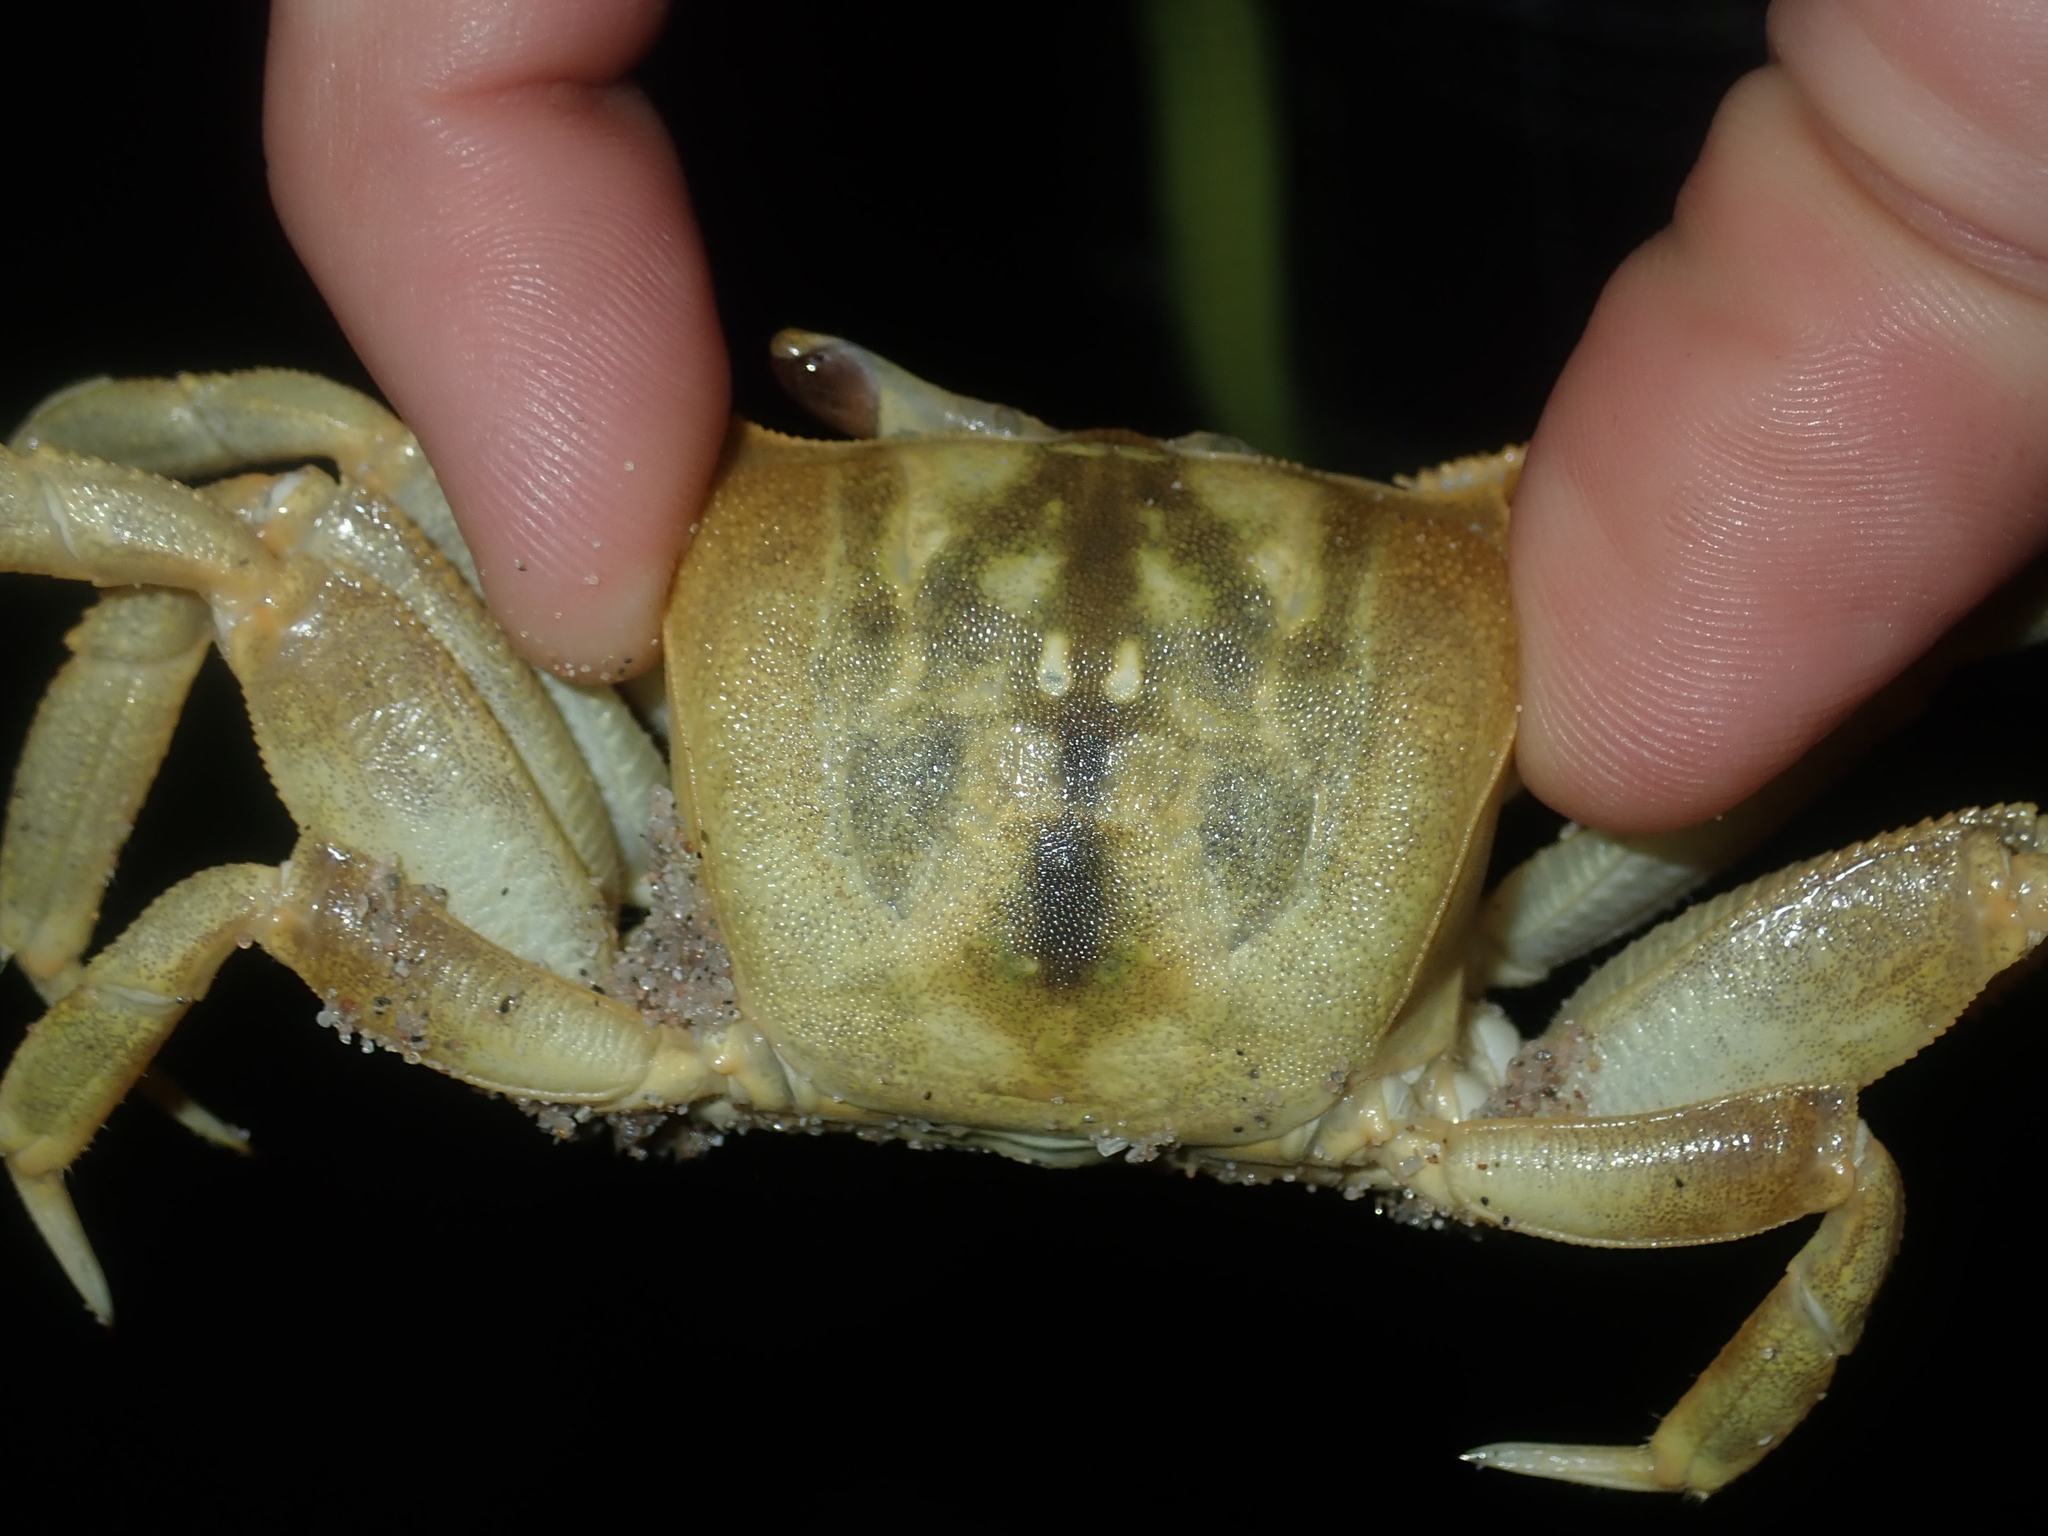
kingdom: Animalia
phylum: Arthropoda
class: Malacostraca
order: Decapoda
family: Ocypodidae
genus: Ocypode
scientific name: Ocypode convexa
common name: Golden ghost crab
